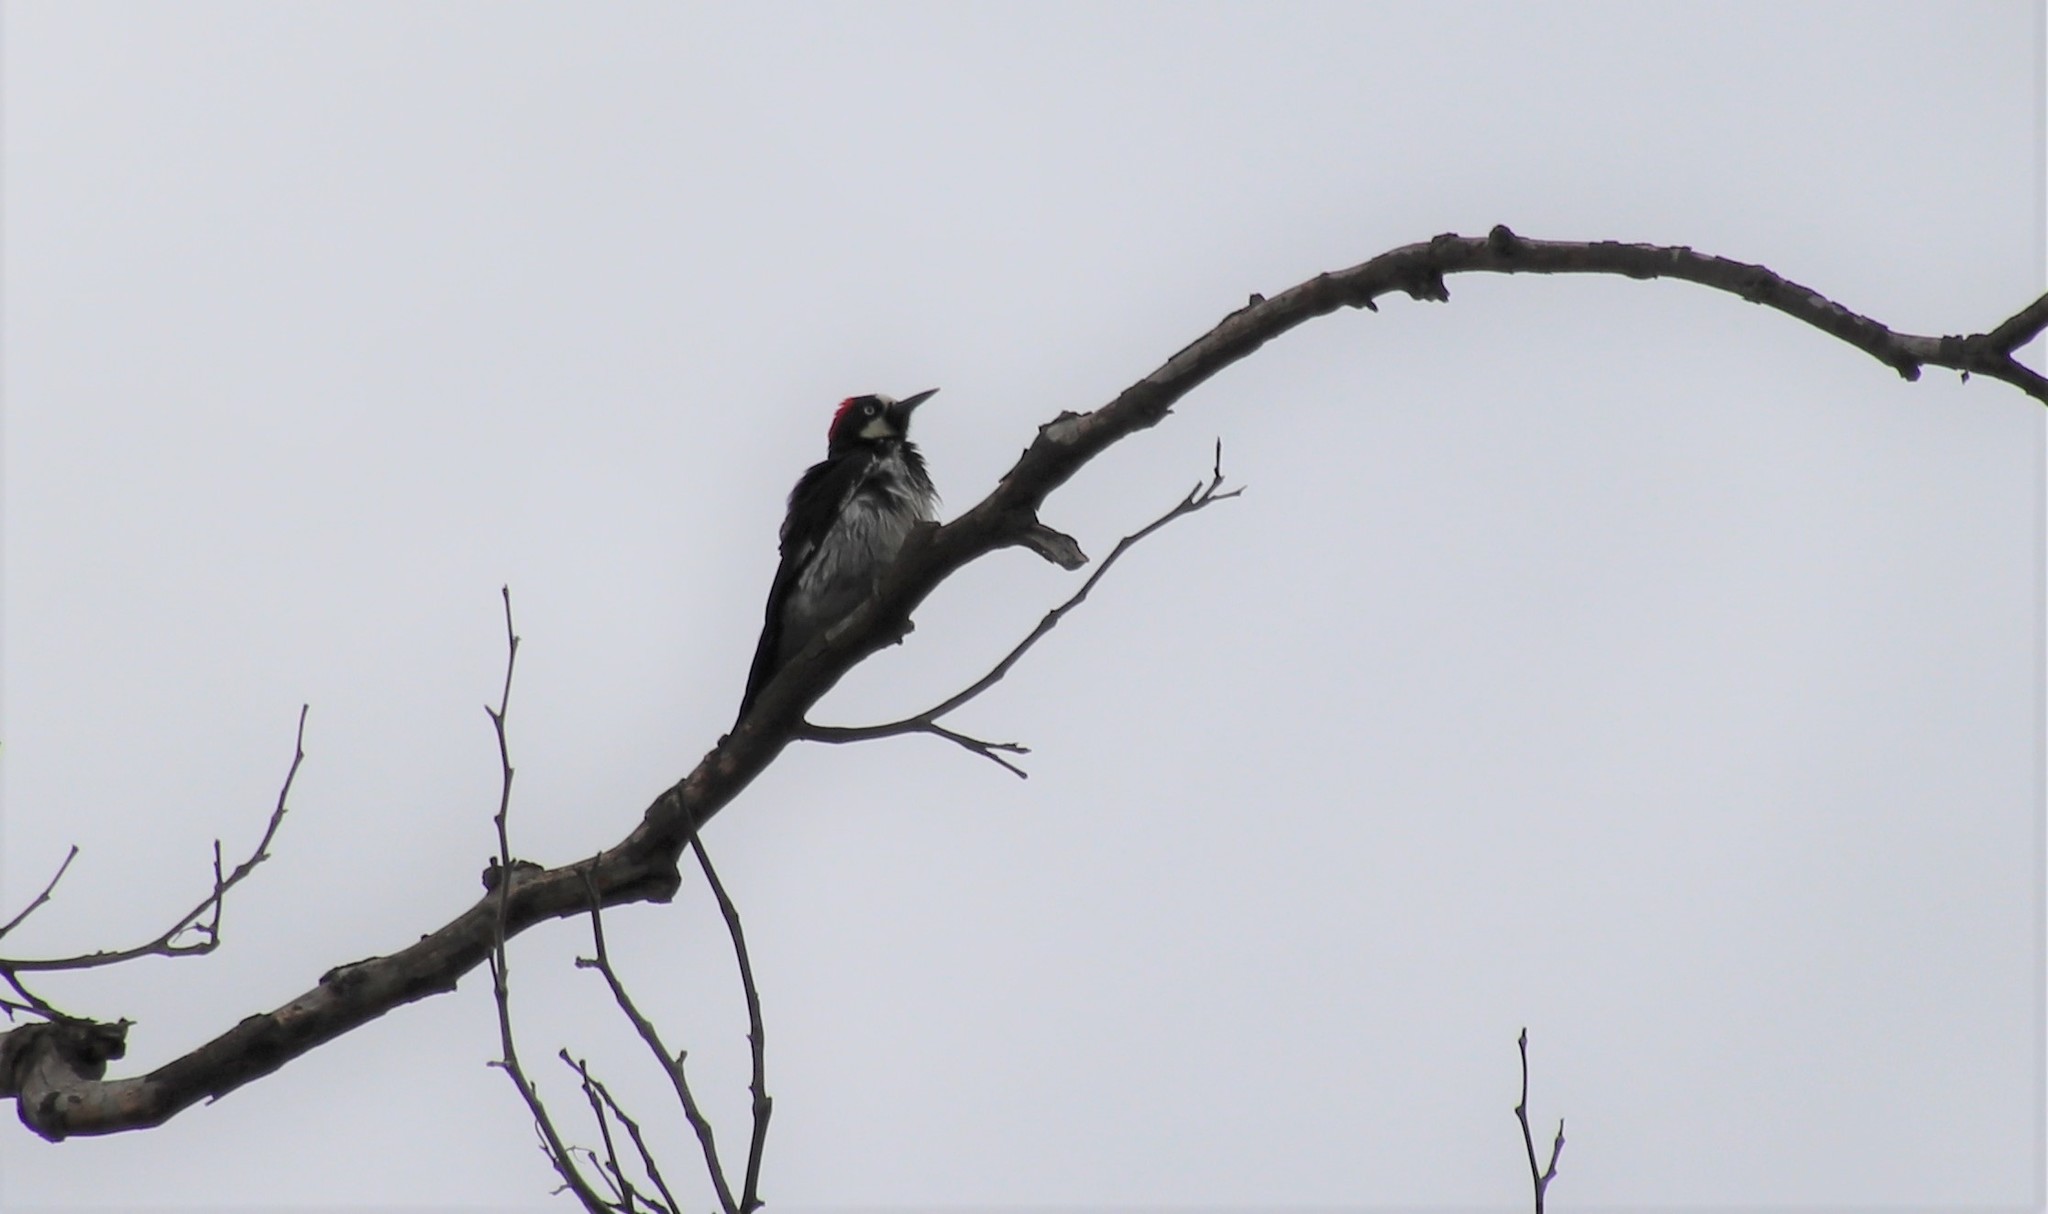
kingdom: Animalia
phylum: Chordata
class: Aves
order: Piciformes
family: Picidae
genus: Melanerpes
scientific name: Melanerpes formicivorus
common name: Acorn woodpecker
